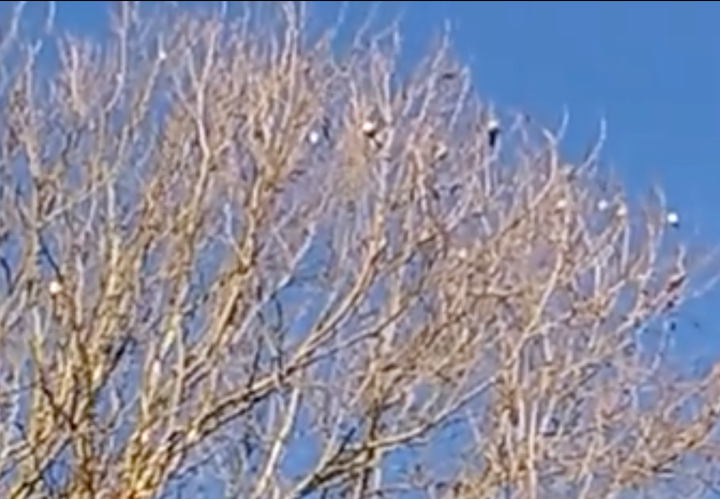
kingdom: Animalia
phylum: Chordata
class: Aves
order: Passeriformes
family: Fringillidae
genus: Spinus
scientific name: Spinus psaltria
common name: Lesser goldfinch
